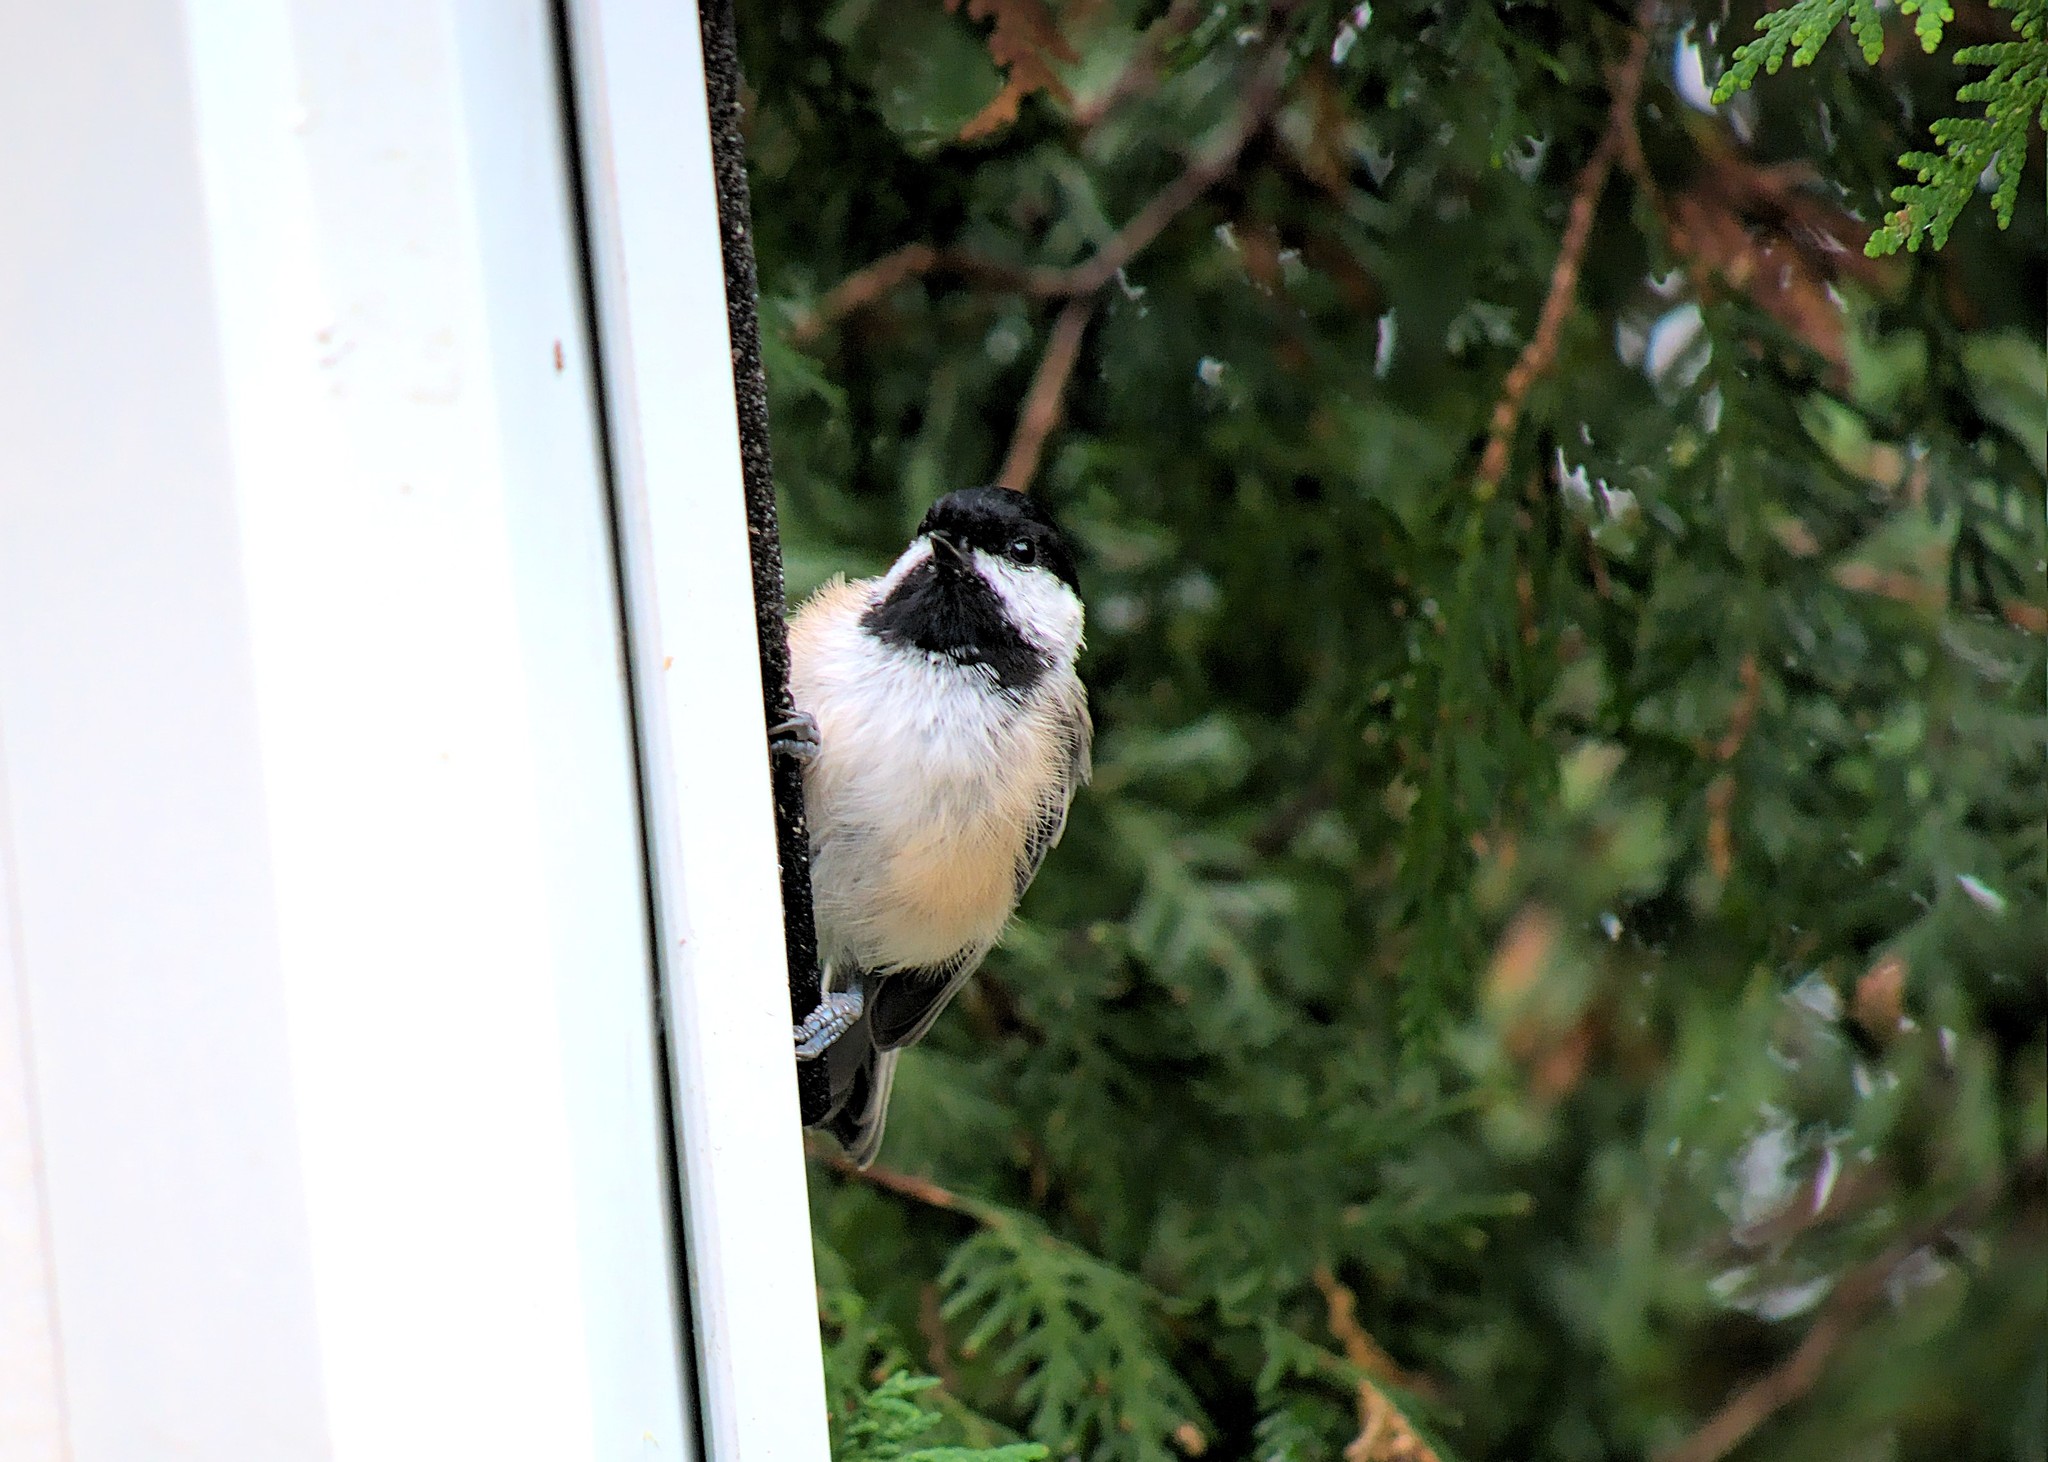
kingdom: Animalia
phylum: Chordata
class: Aves
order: Passeriformes
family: Paridae
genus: Poecile
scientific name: Poecile atricapillus
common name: Black-capped chickadee
